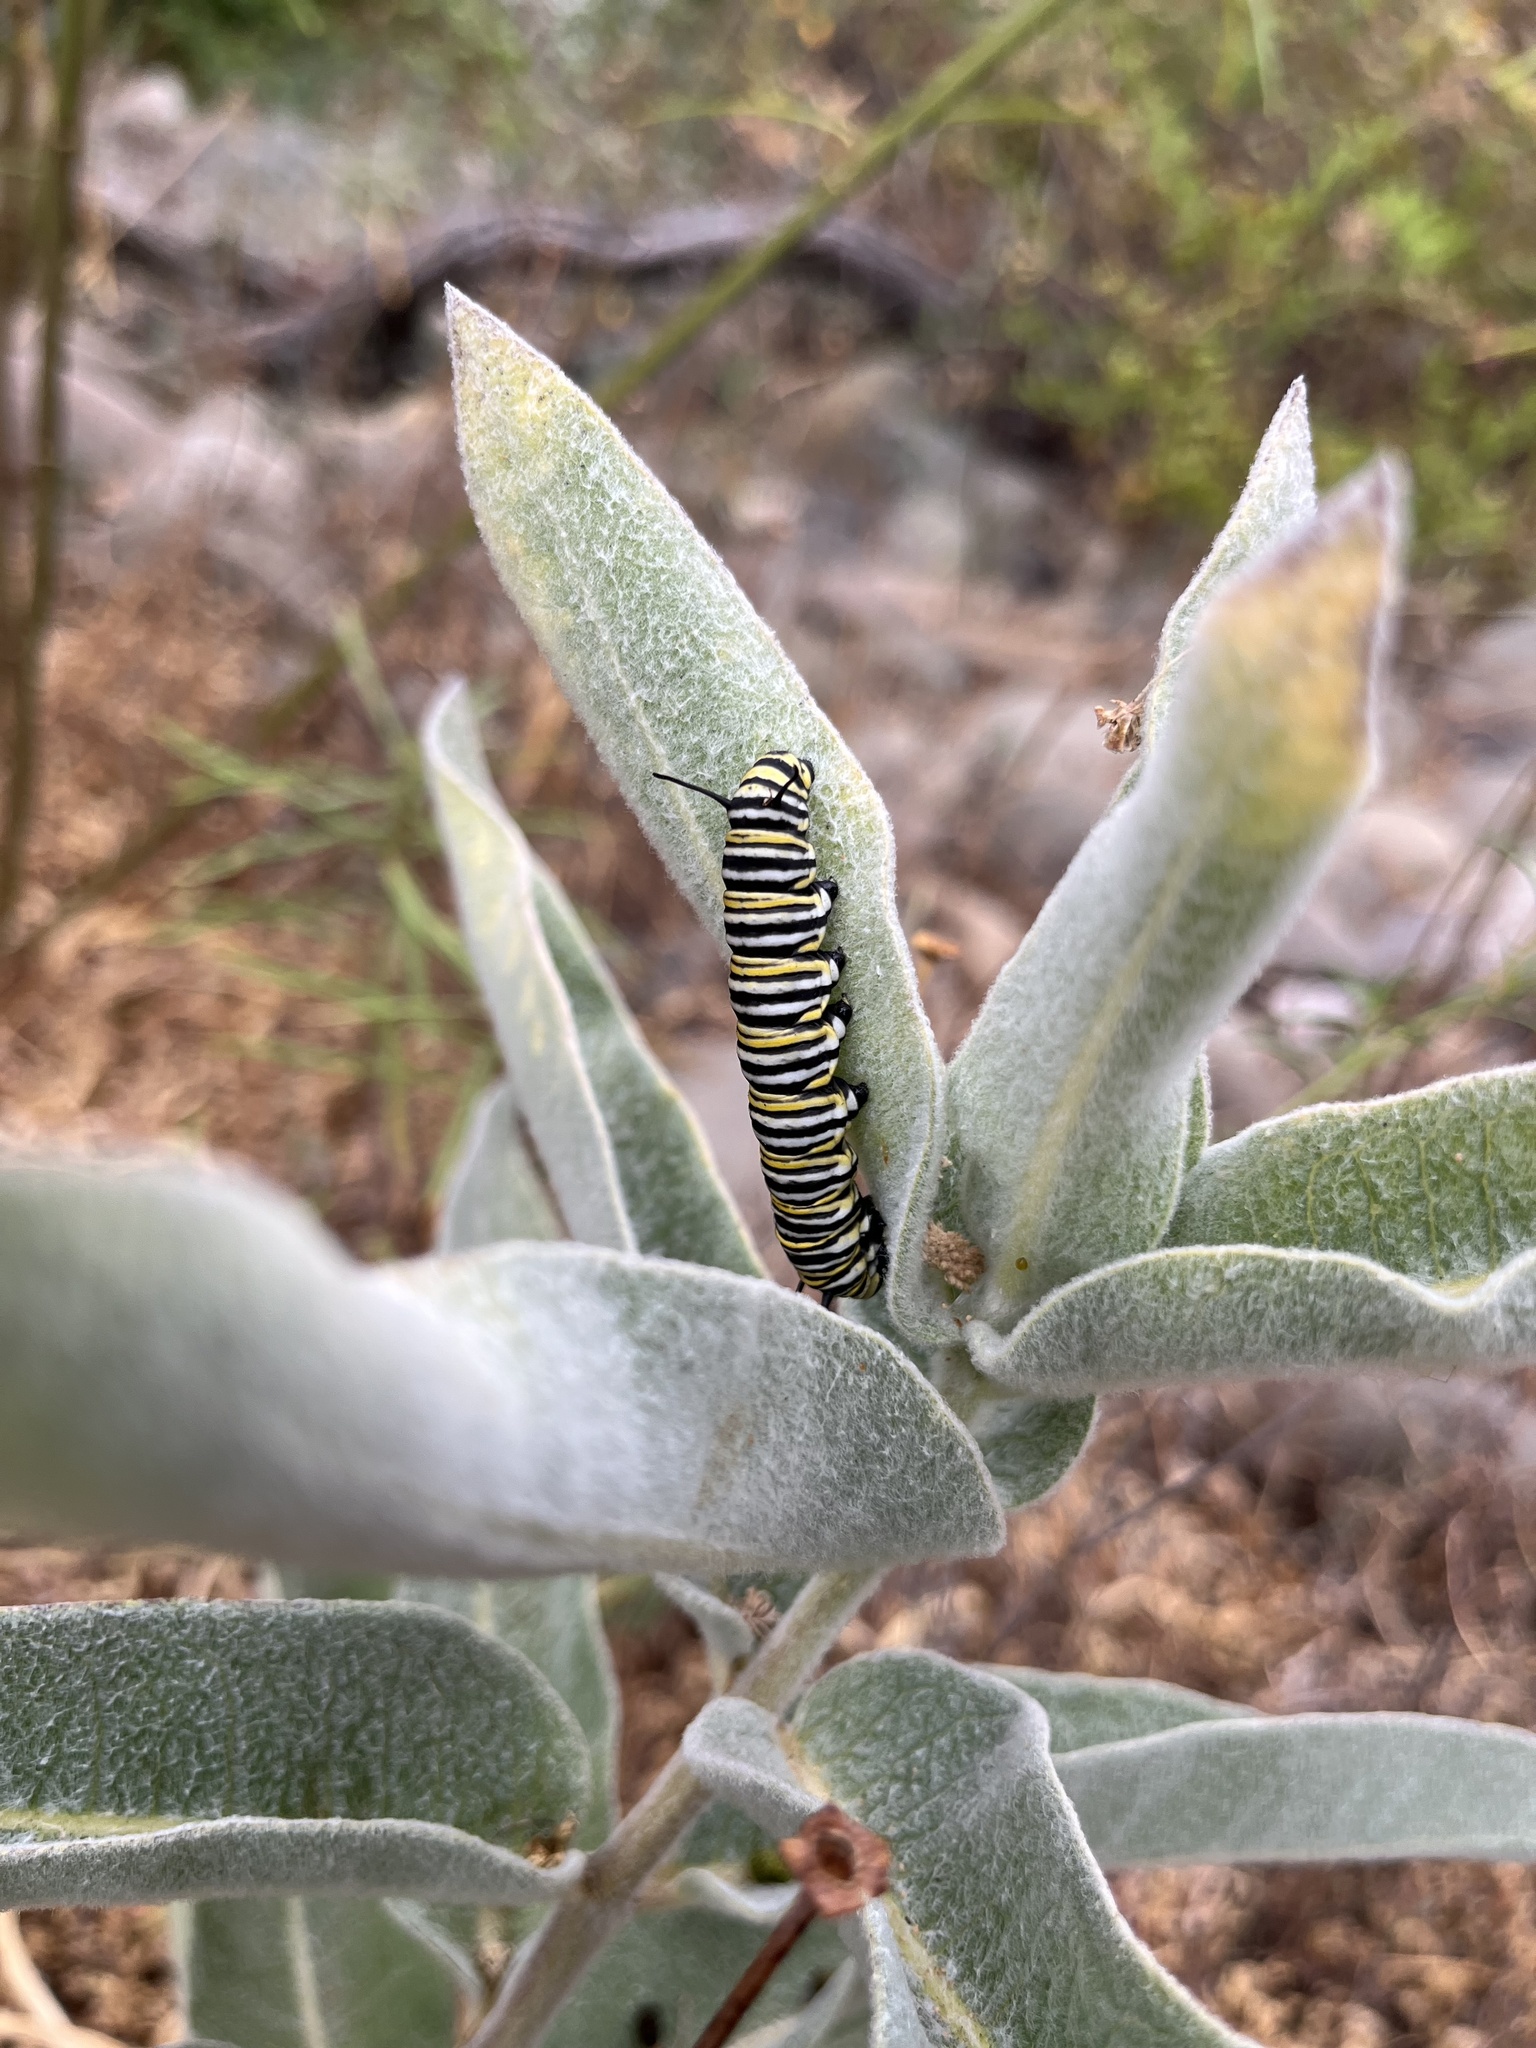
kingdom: Animalia
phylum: Arthropoda
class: Insecta
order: Lepidoptera
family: Nymphalidae
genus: Danaus
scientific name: Danaus plexippus
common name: Monarch
